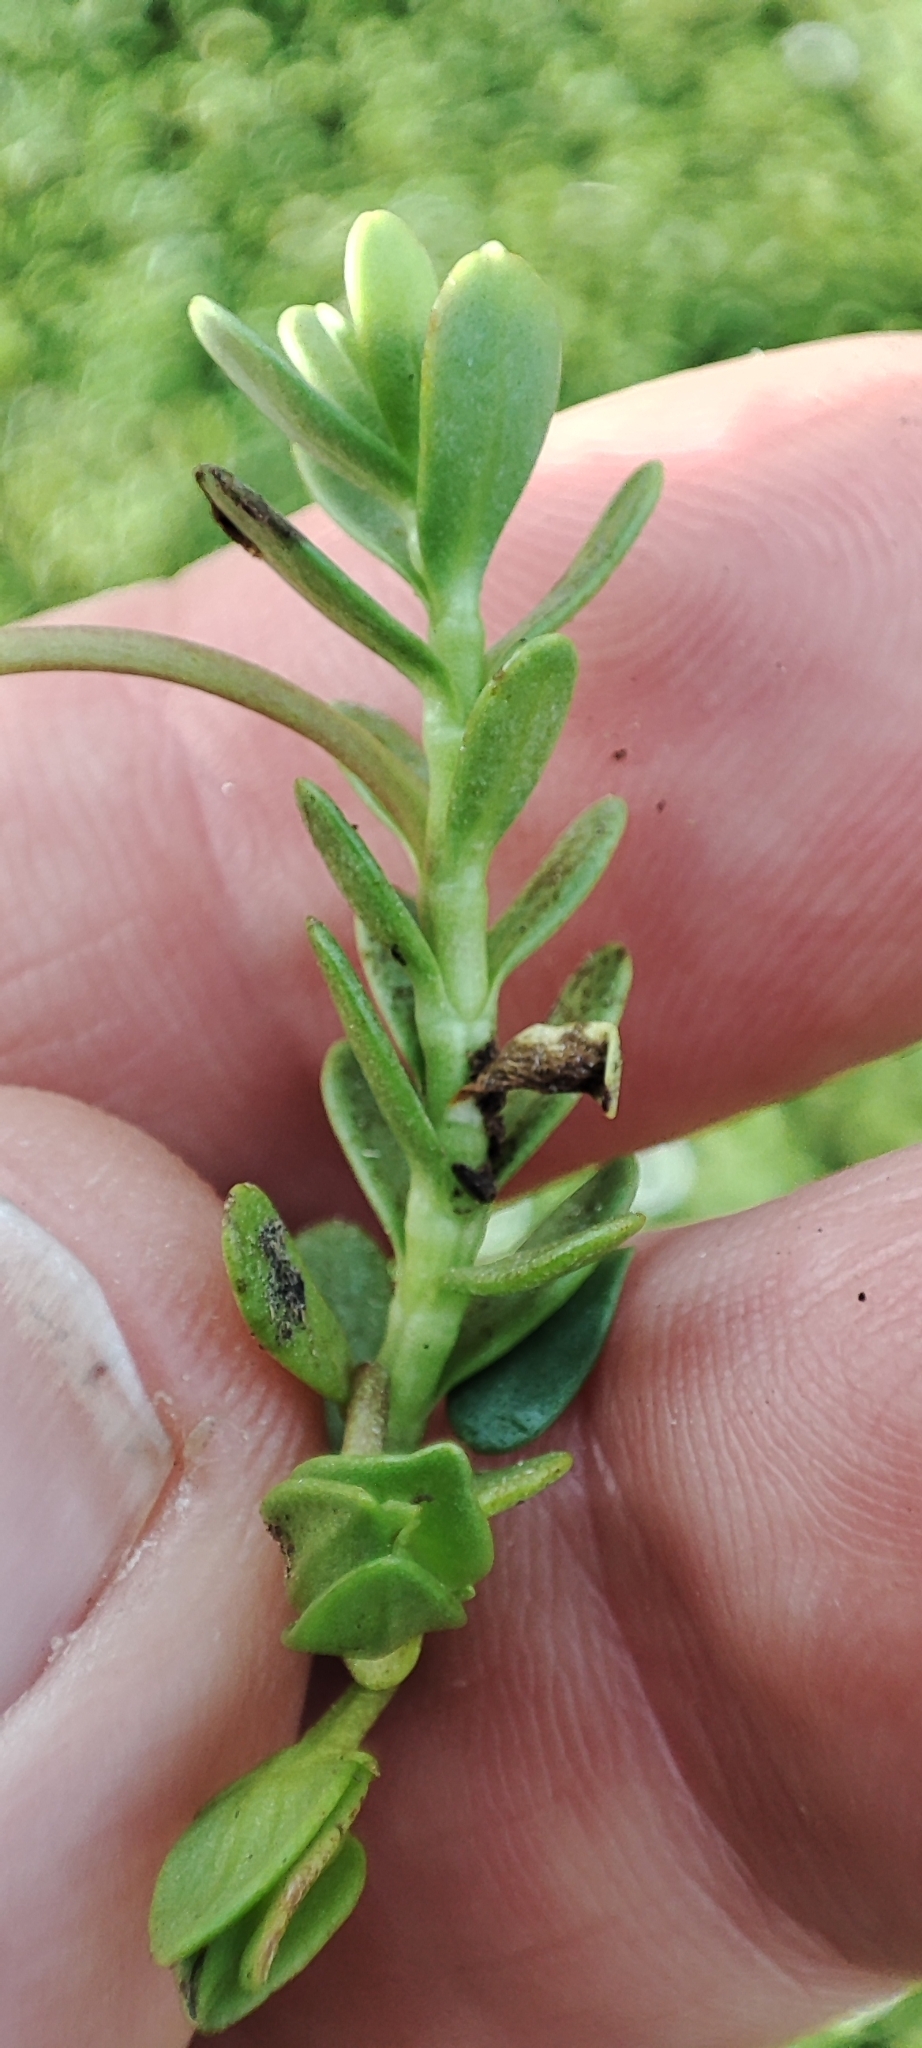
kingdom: Plantae
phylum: Tracheophyta
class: Magnoliopsida
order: Lamiales
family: Plantaginaceae
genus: Bacopa
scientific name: Bacopa monnieri
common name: Indian-pennywort
